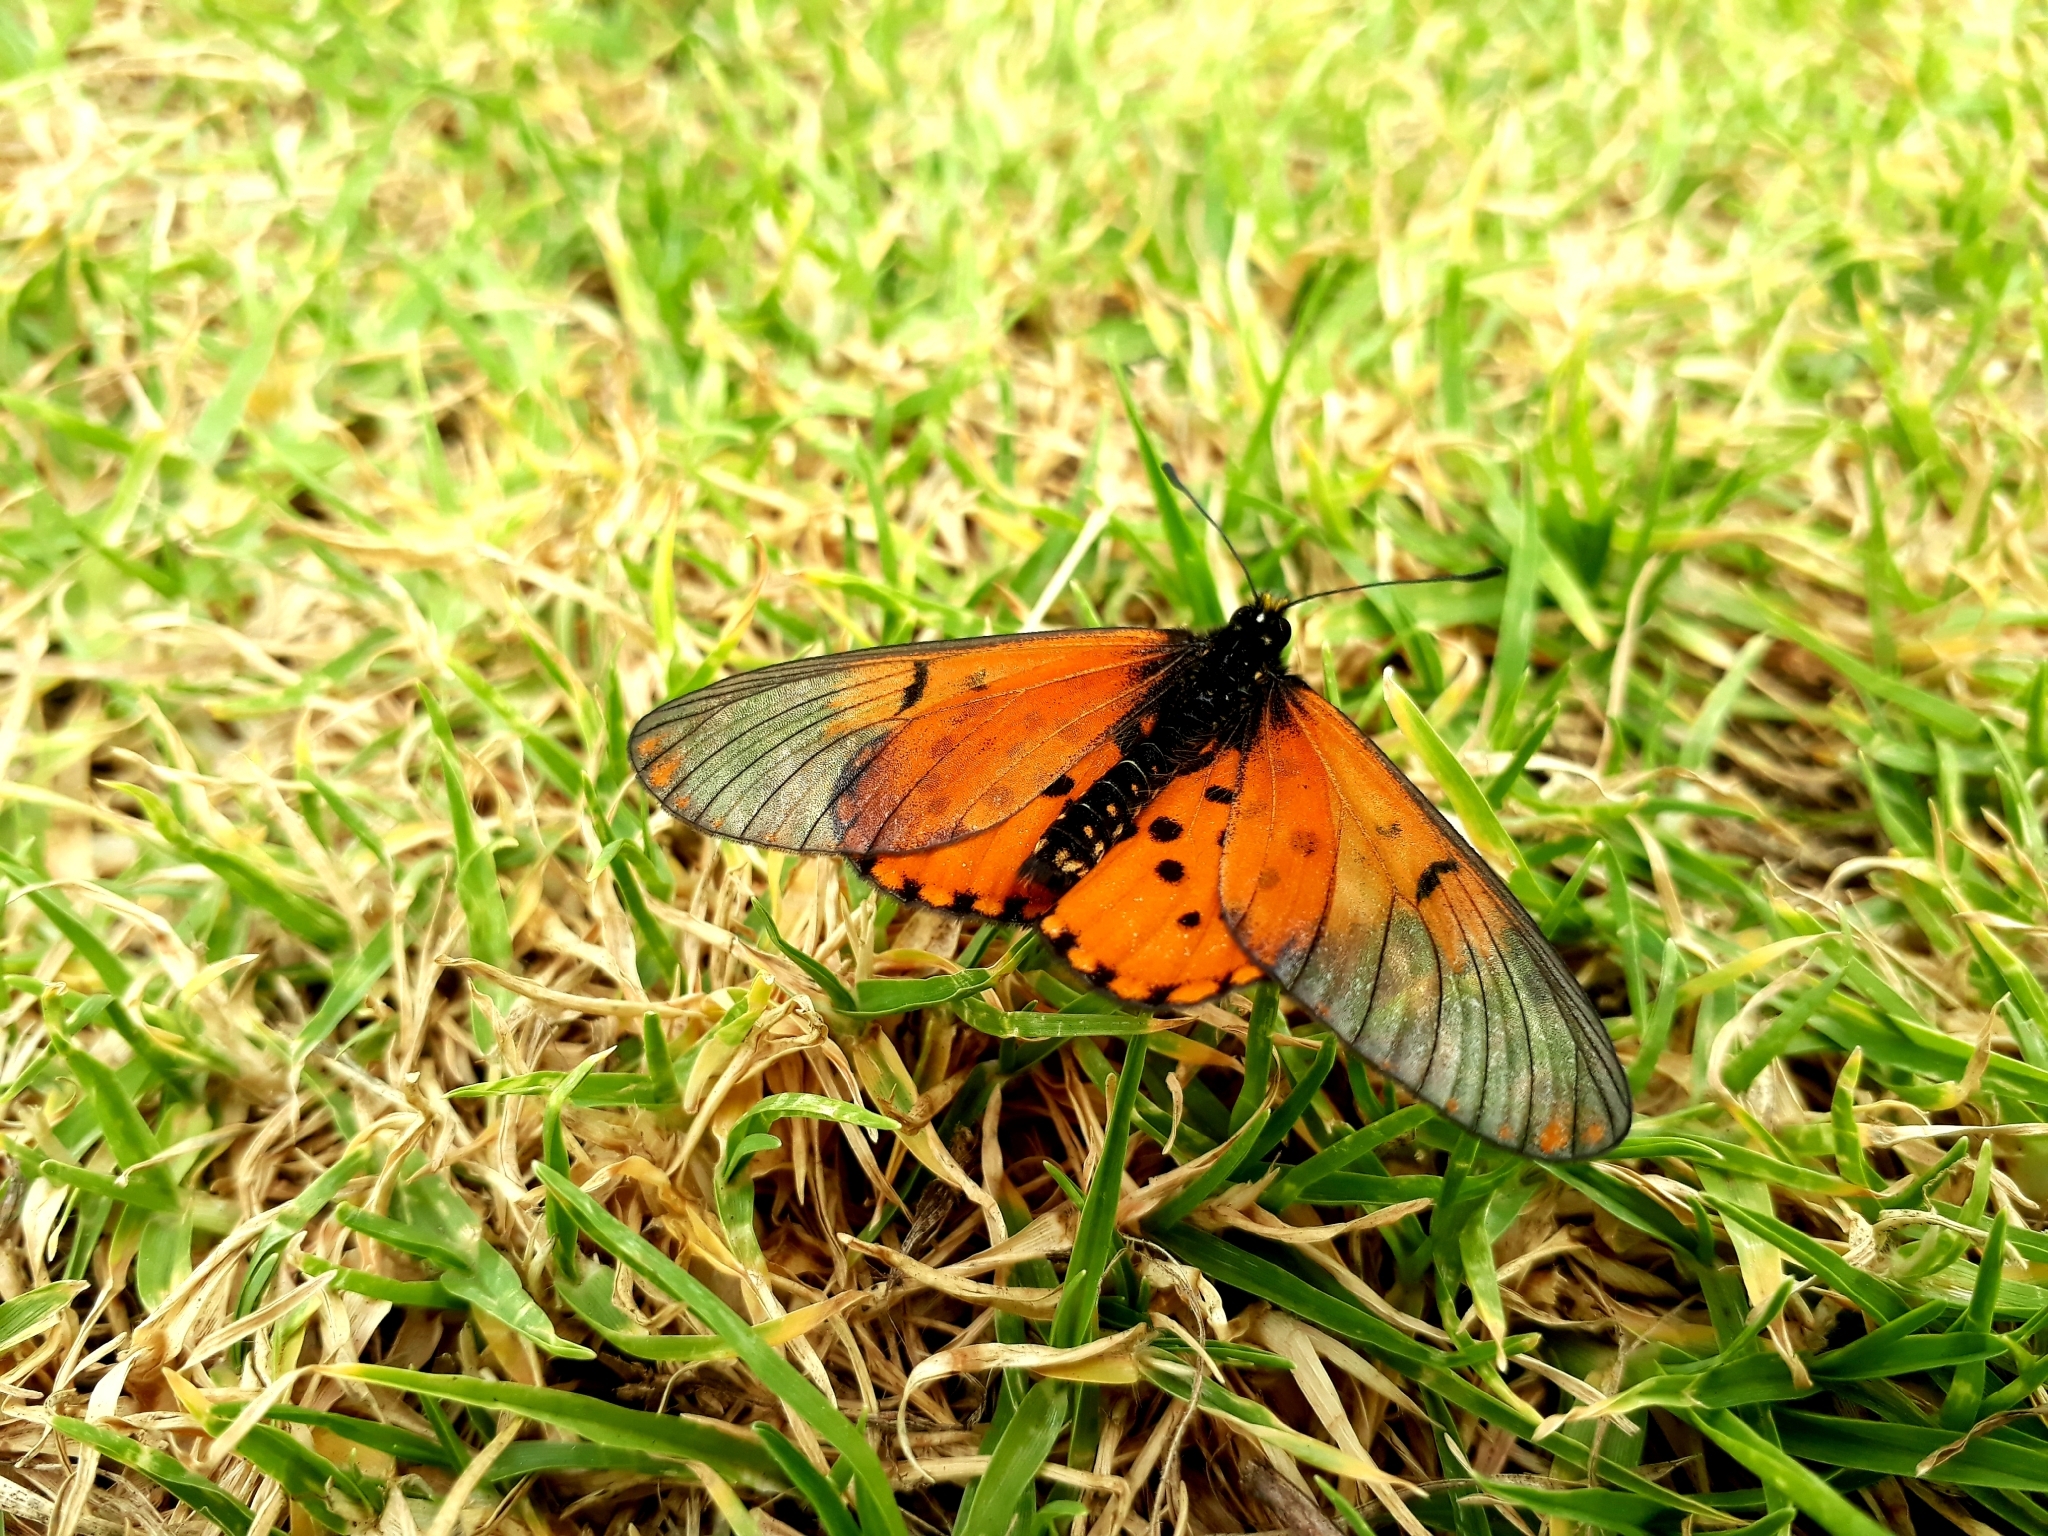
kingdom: Animalia
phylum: Arthropoda
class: Insecta
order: Lepidoptera
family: Nymphalidae
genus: Acraea
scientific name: Acraea horta
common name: Garden acraea
